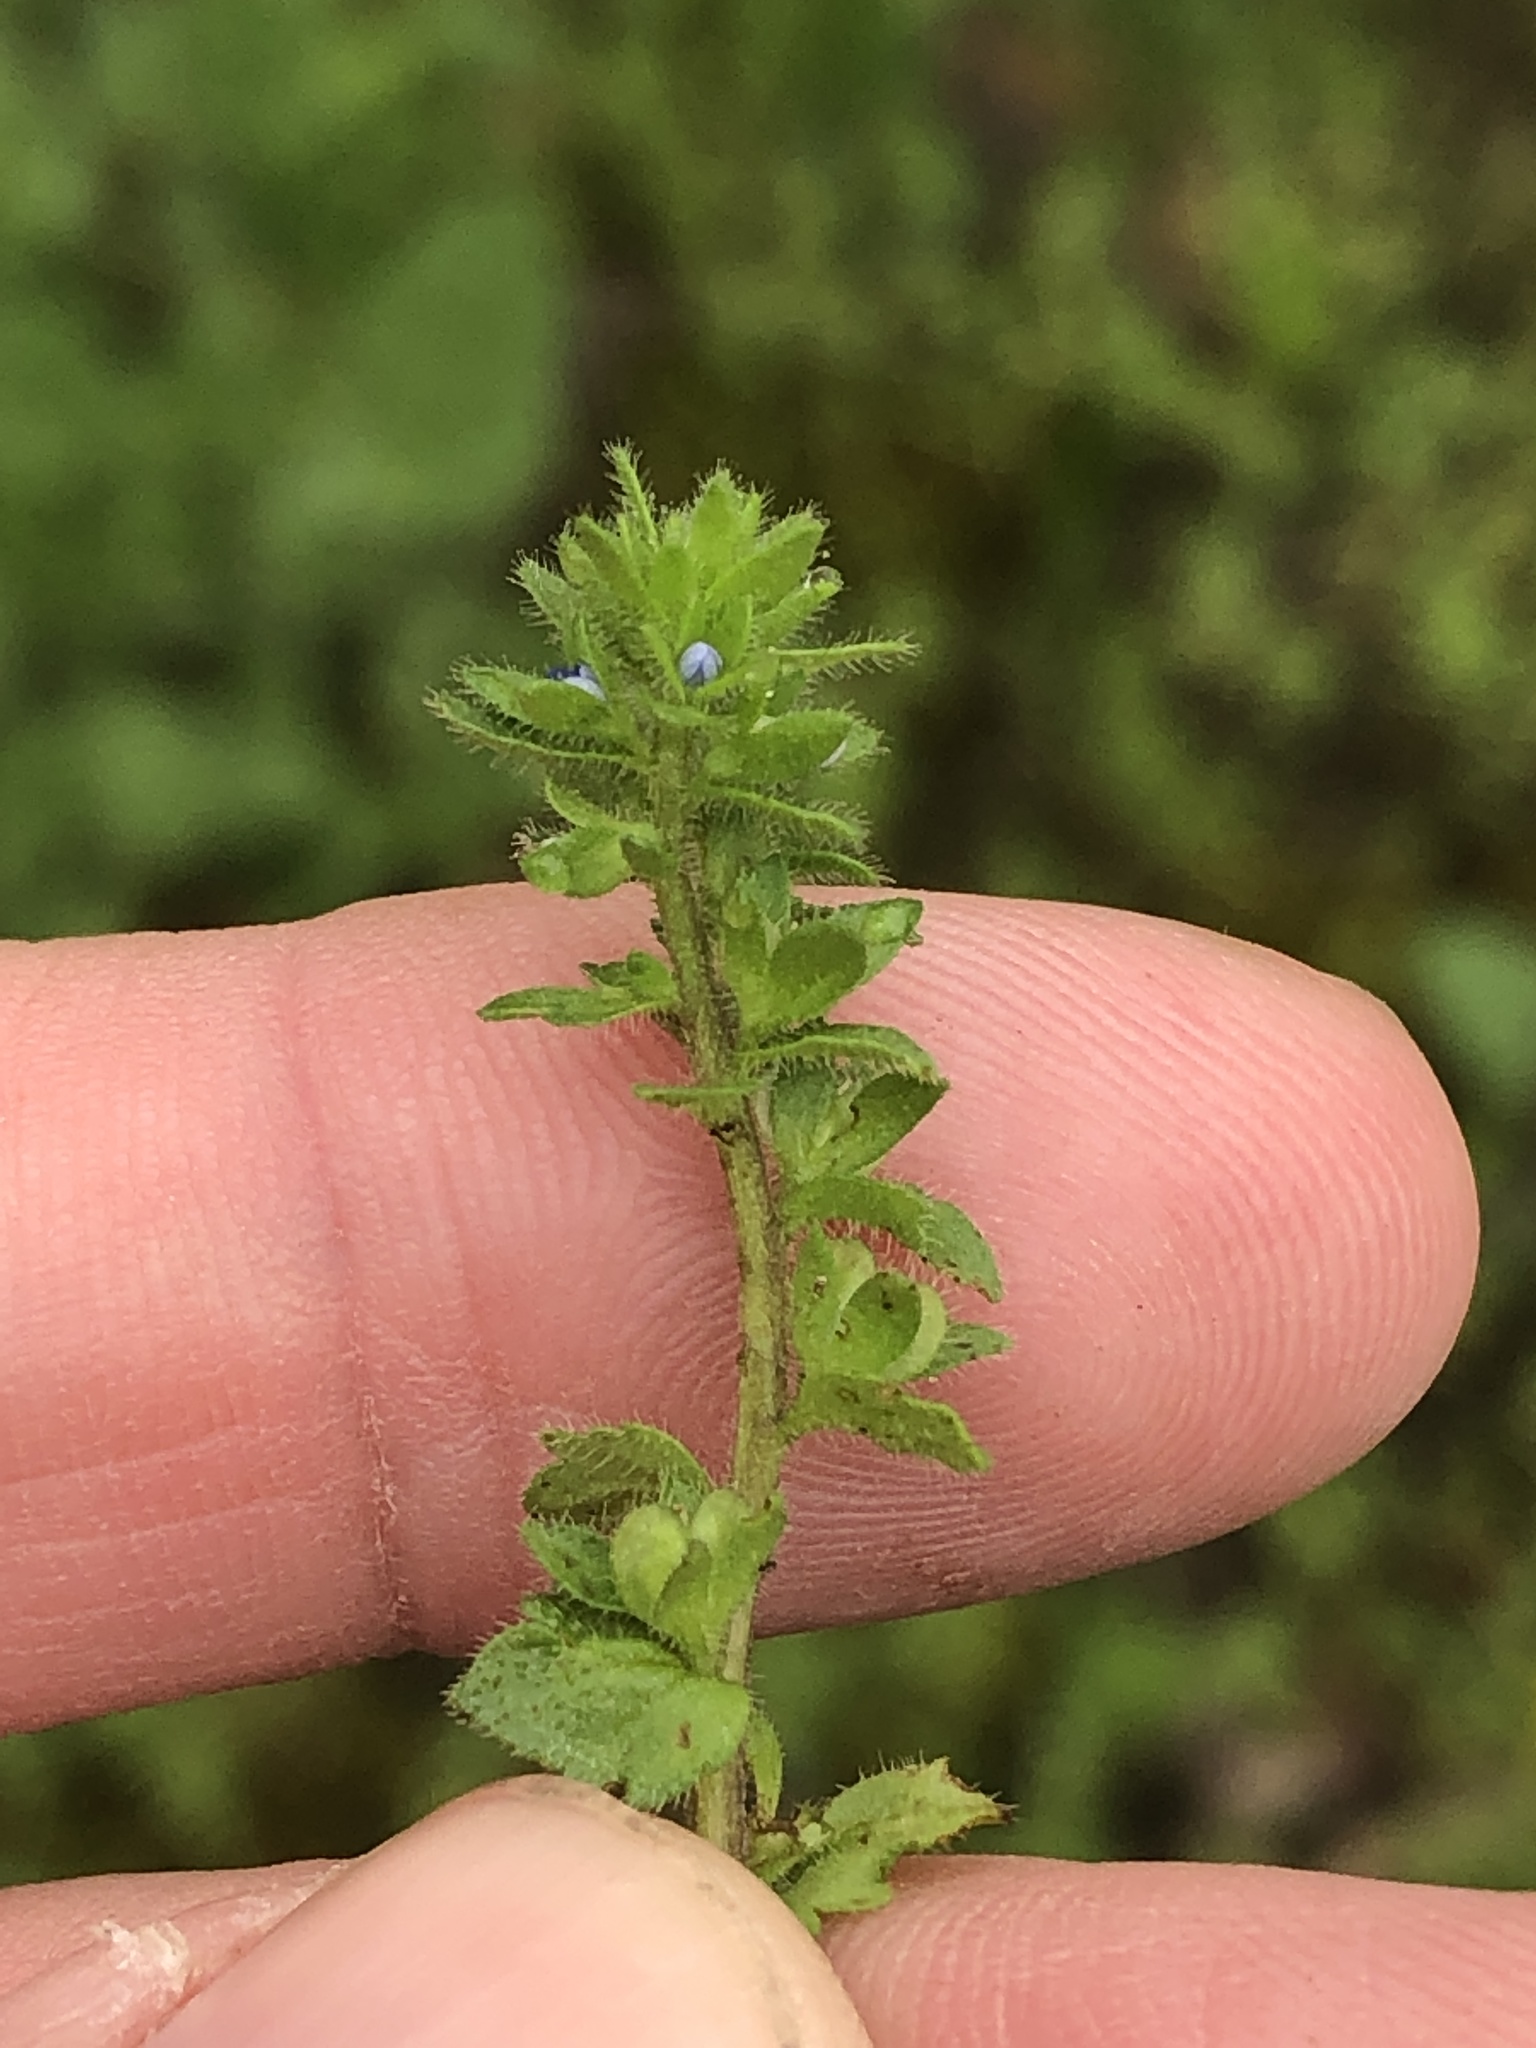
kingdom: Plantae
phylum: Tracheophyta
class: Magnoliopsida
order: Lamiales
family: Plantaginaceae
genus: Veronica
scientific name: Veronica arvensis
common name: Corn speedwell
